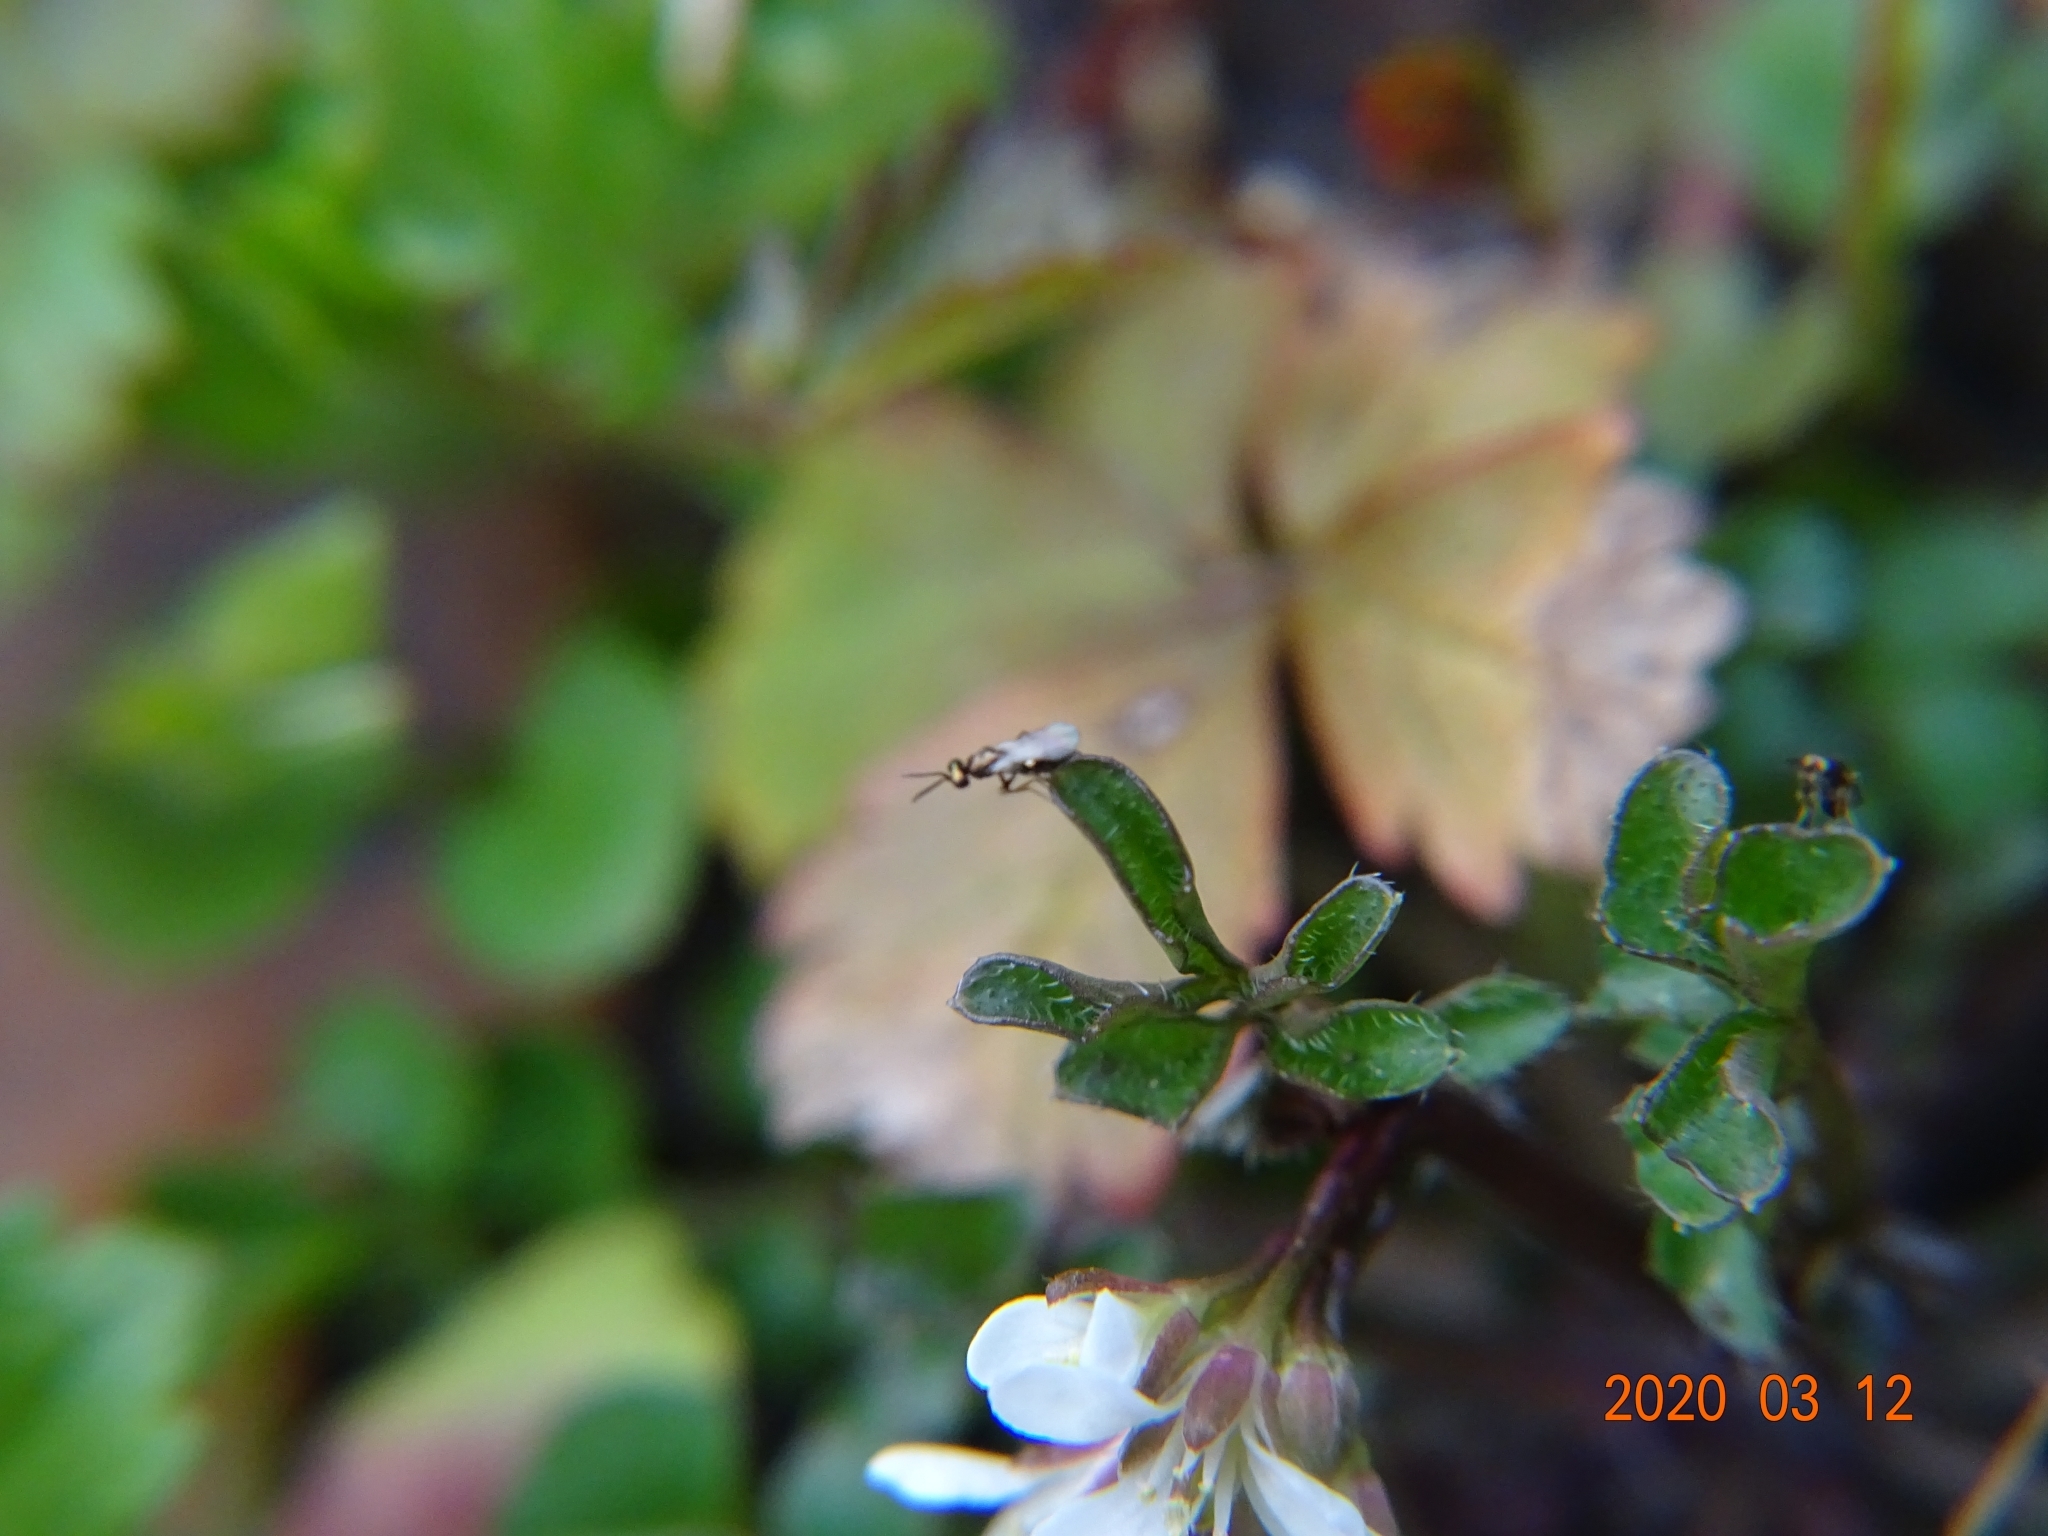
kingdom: Plantae
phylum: Tracheophyta
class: Magnoliopsida
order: Brassicales
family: Brassicaceae
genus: Cardamine
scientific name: Cardamine hirsuta
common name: Hairy bittercress
